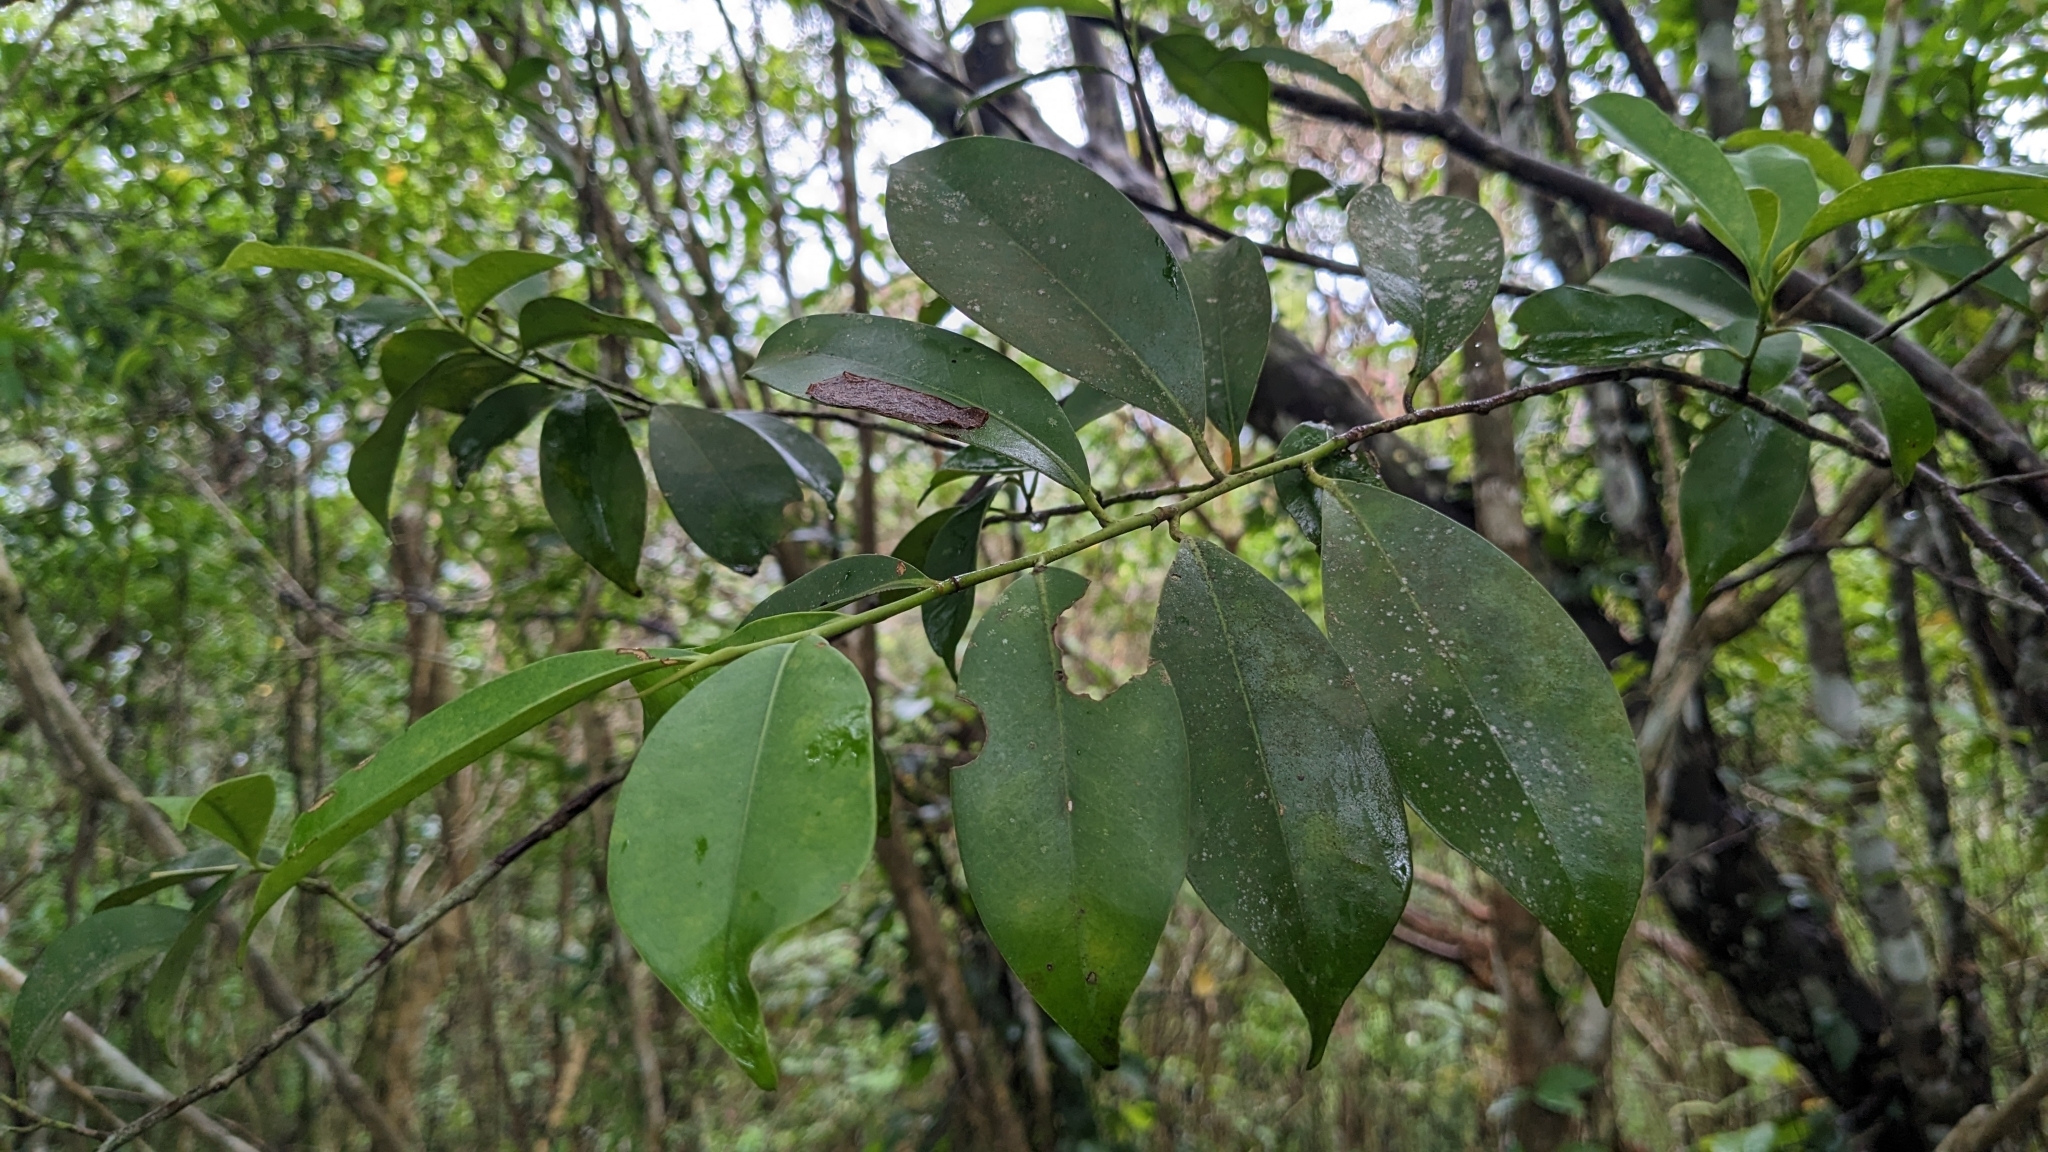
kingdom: Plantae
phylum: Tracheophyta
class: Magnoliopsida
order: Ericales
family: Pentaphylacaceae
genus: Cleyera
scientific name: Cleyera japonica
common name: Sakaki
